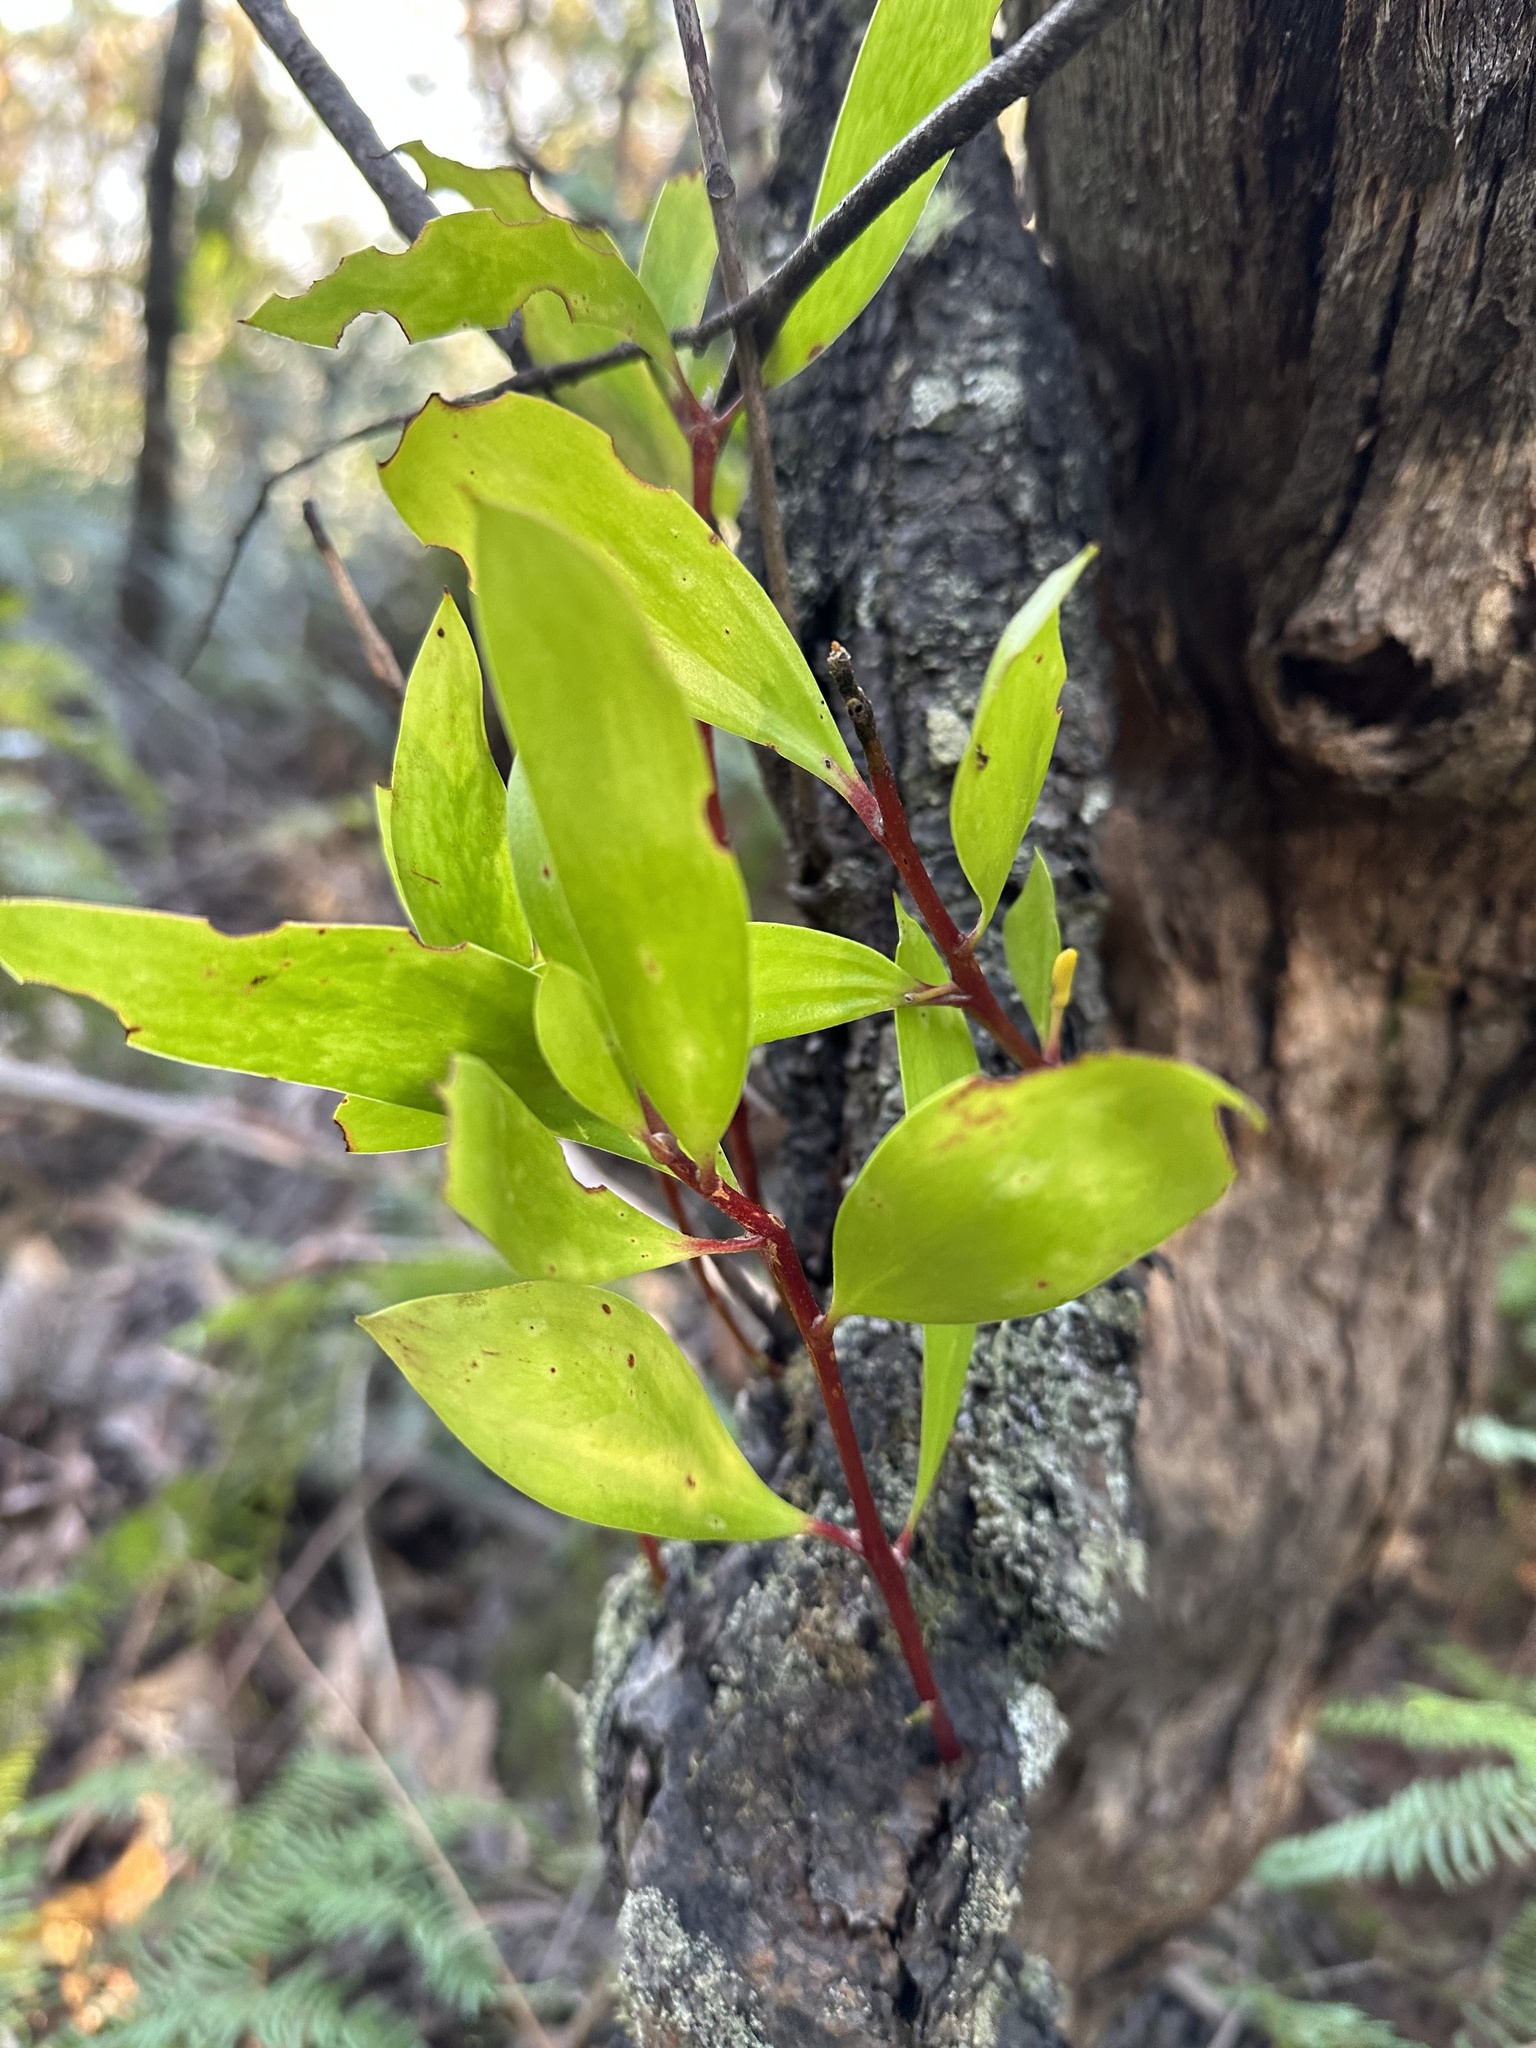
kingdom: Plantae
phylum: Tracheophyta
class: Magnoliopsida
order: Proteales
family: Proteaceae
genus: Persoonia
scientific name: Persoonia levis
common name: Smooth geebung
